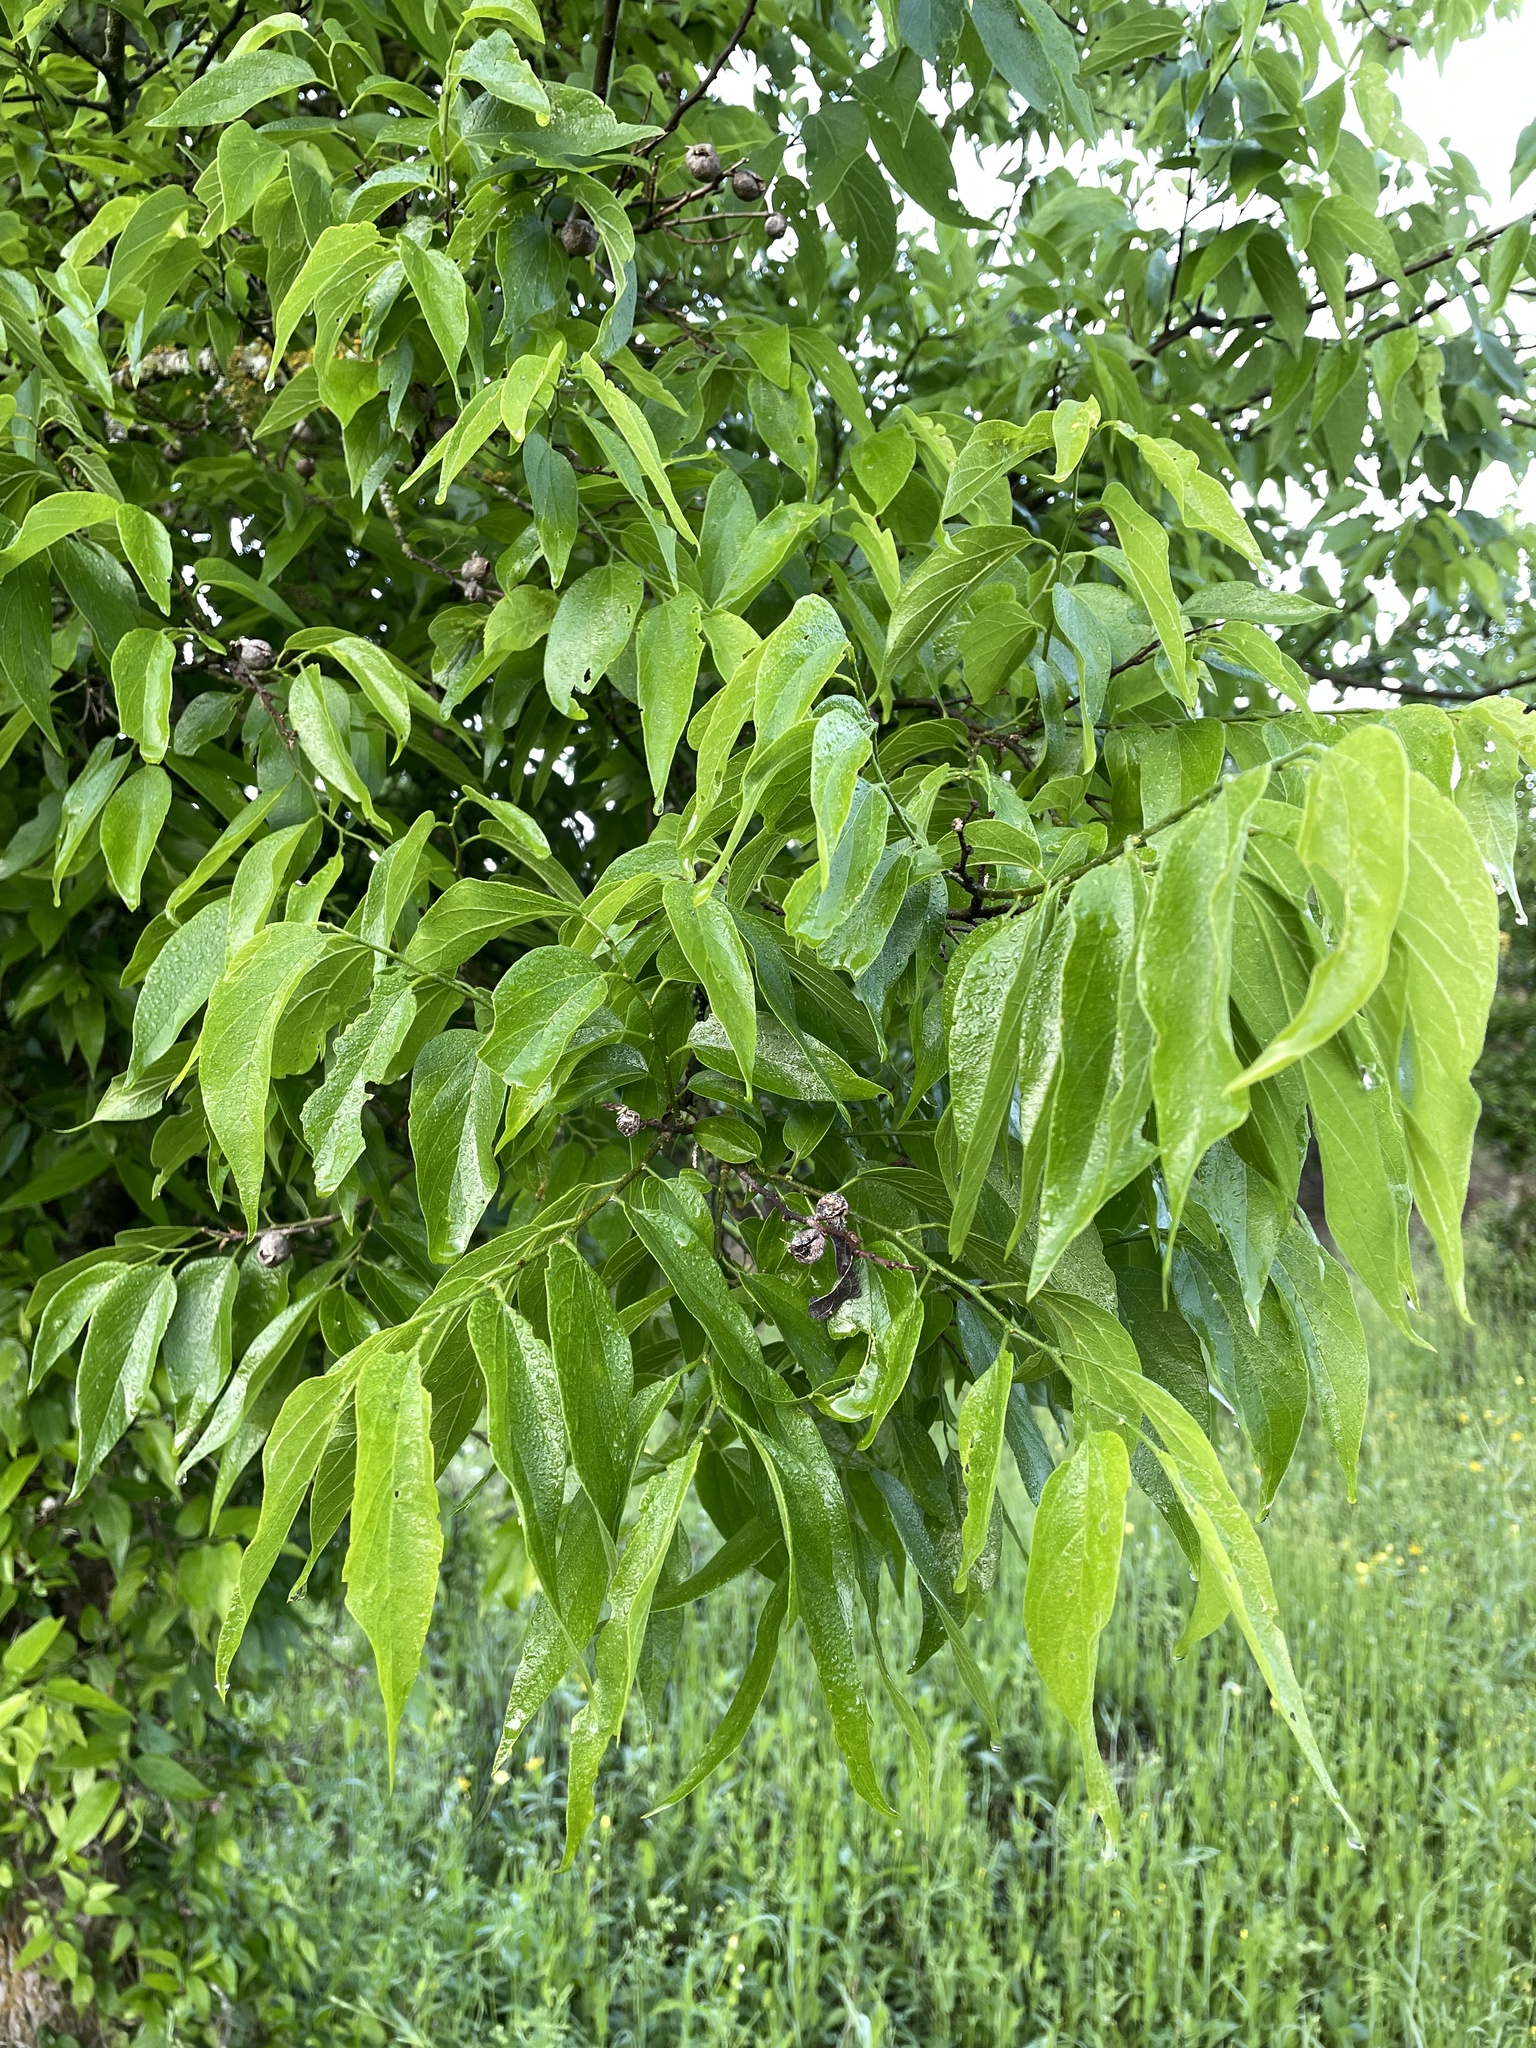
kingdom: Plantae
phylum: Tracheophyta
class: Magnoliopsida
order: Rosales
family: Cannabaceae
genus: Celtis
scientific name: Celtis laevigata
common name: Sugarberry
